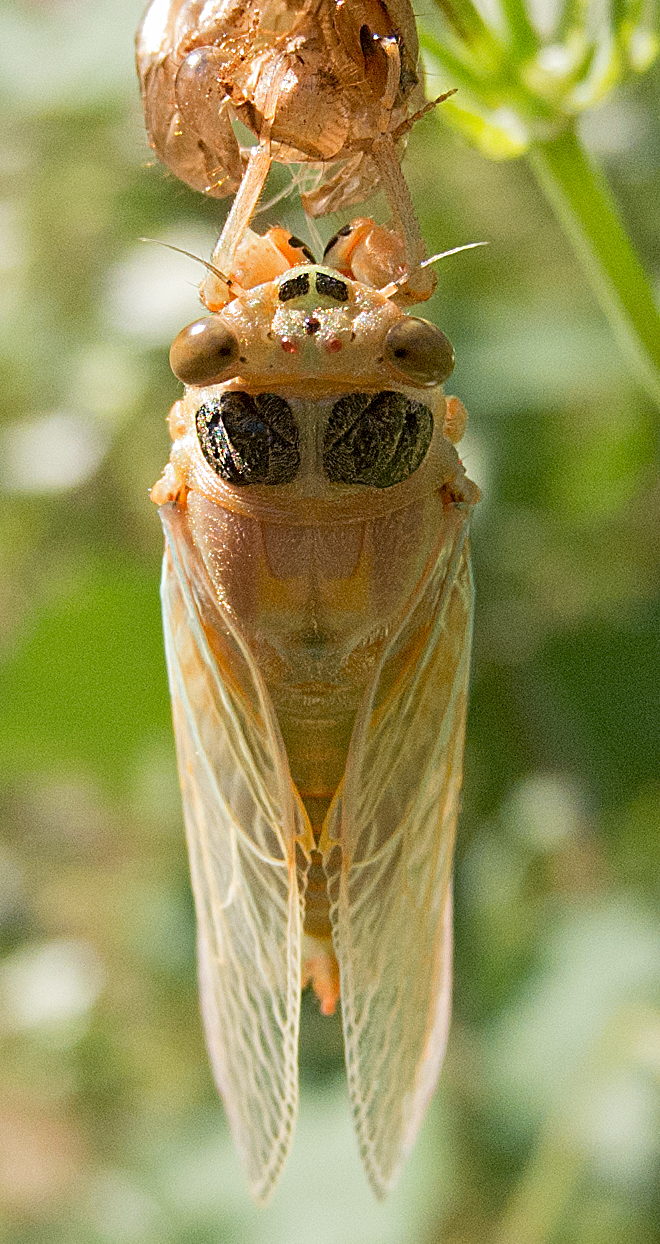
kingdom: Animalia
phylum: Arthropoda
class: Insecta
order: Hemiptera
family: Cicadidae
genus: Dimissalna
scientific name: Dimissalna dimissa
